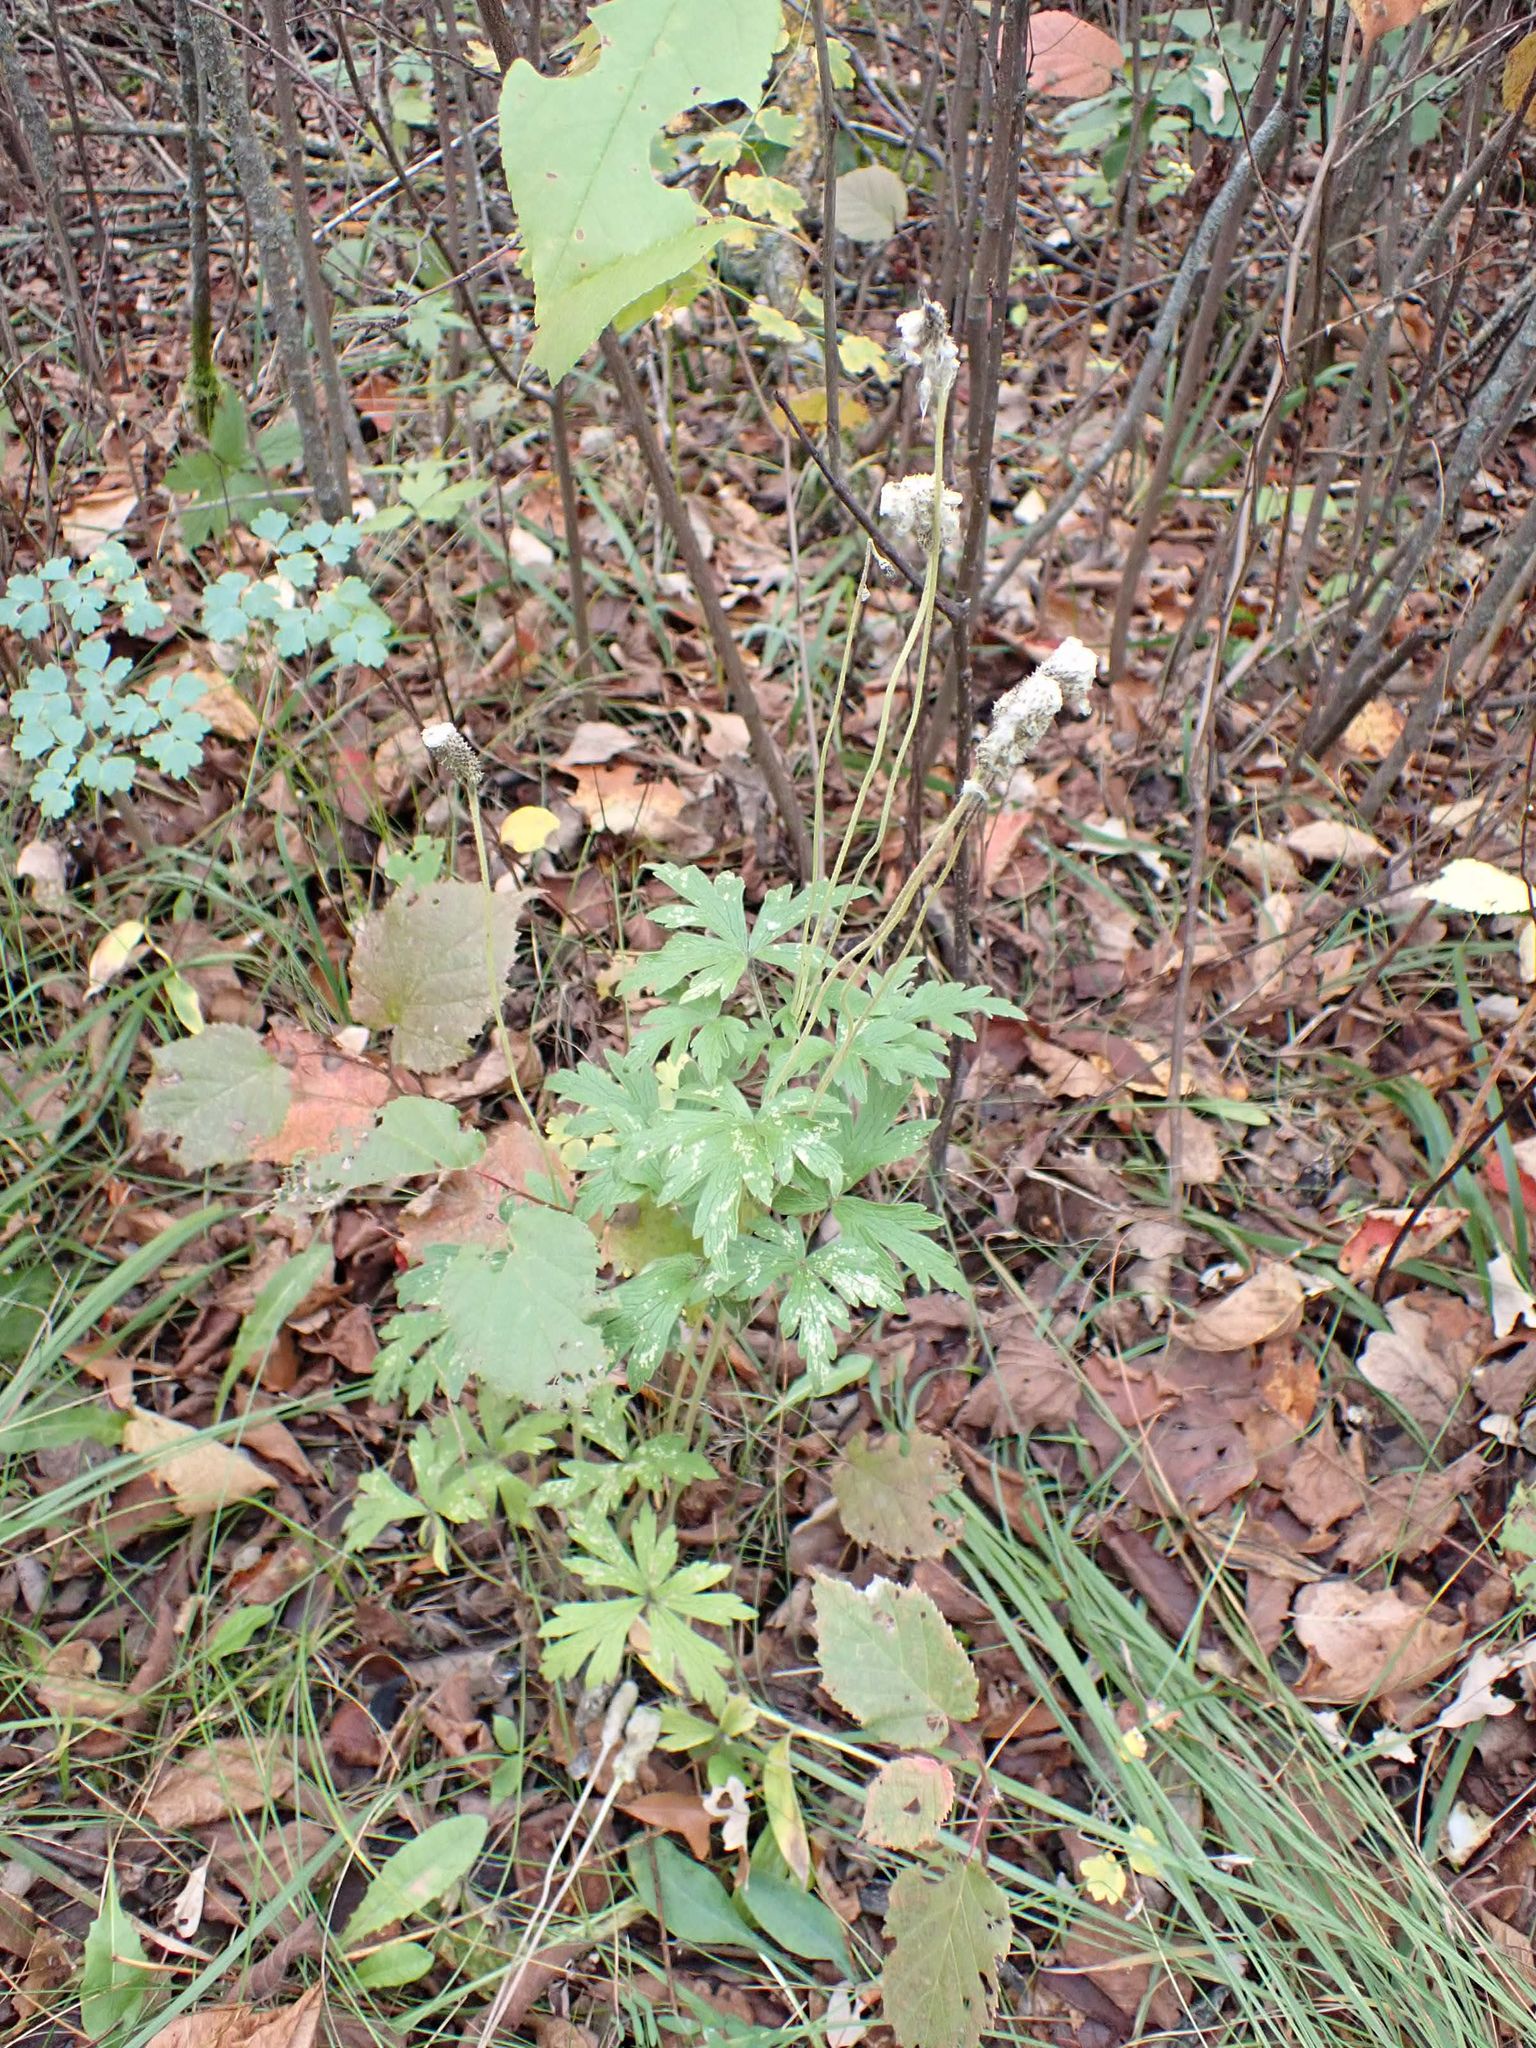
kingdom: Plantae
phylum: Tracheophyta
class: Magnoliopsida
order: Ranunculales
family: Ranunculaceae
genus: Anemone
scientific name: Anemone virginiana
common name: Tall anemone
